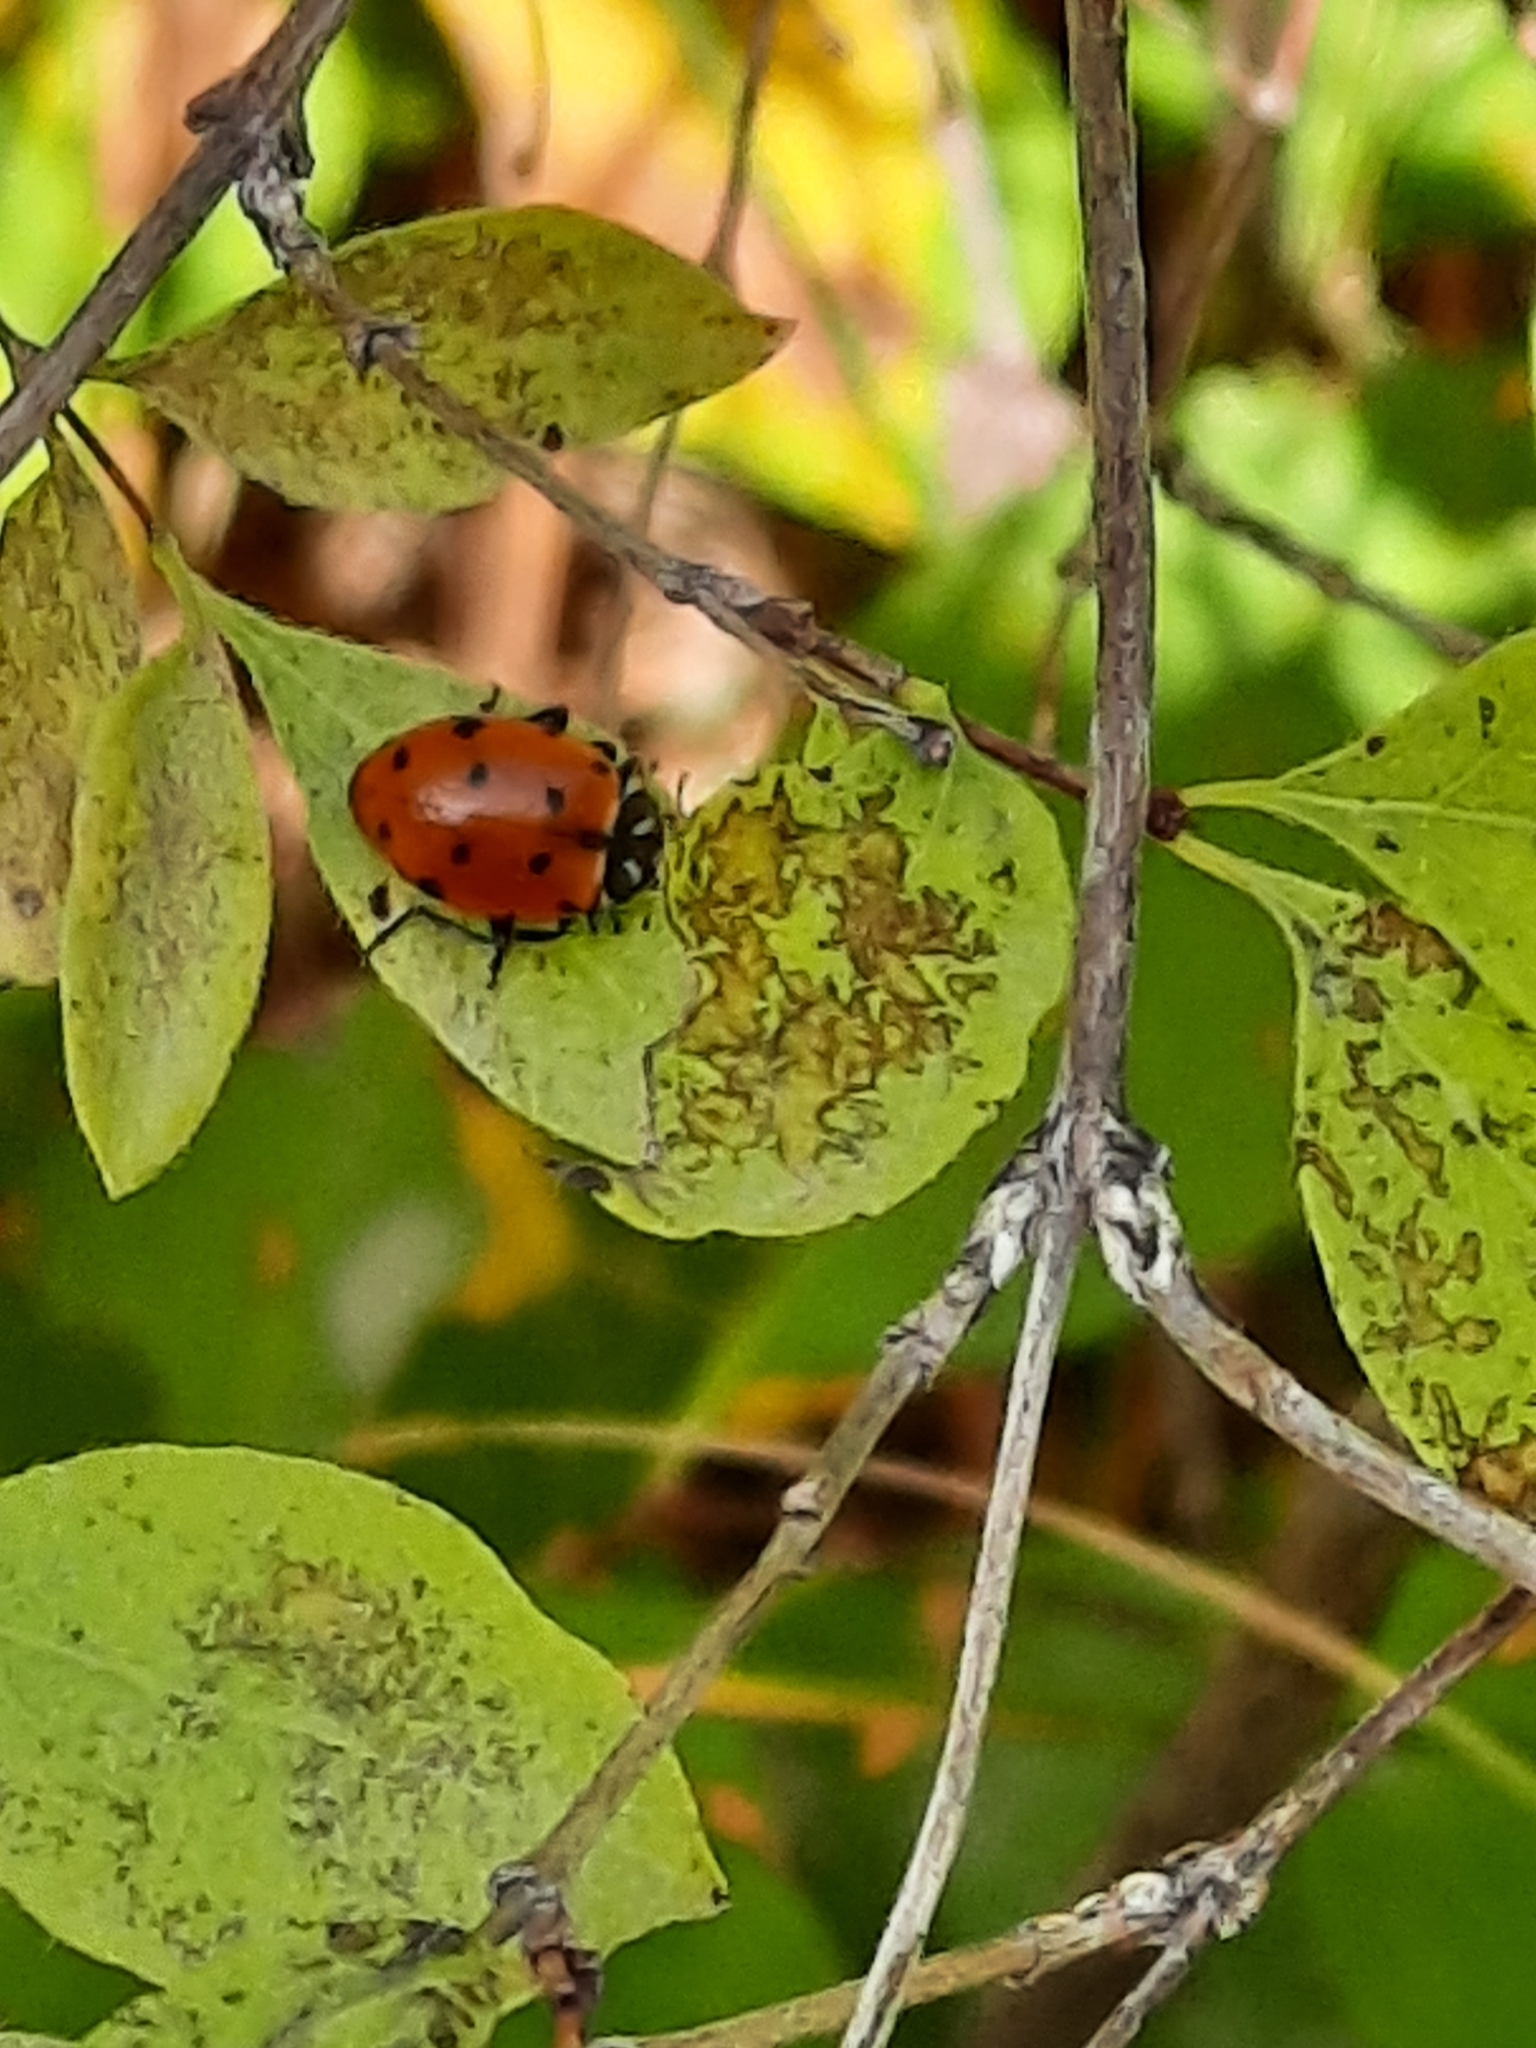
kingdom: Animalia
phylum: Arthropoda
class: Insecta
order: Coleoptera
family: Coccinellidae
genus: Hippodamia
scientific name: Hippodamia convergens
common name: Convergent lady beetle
